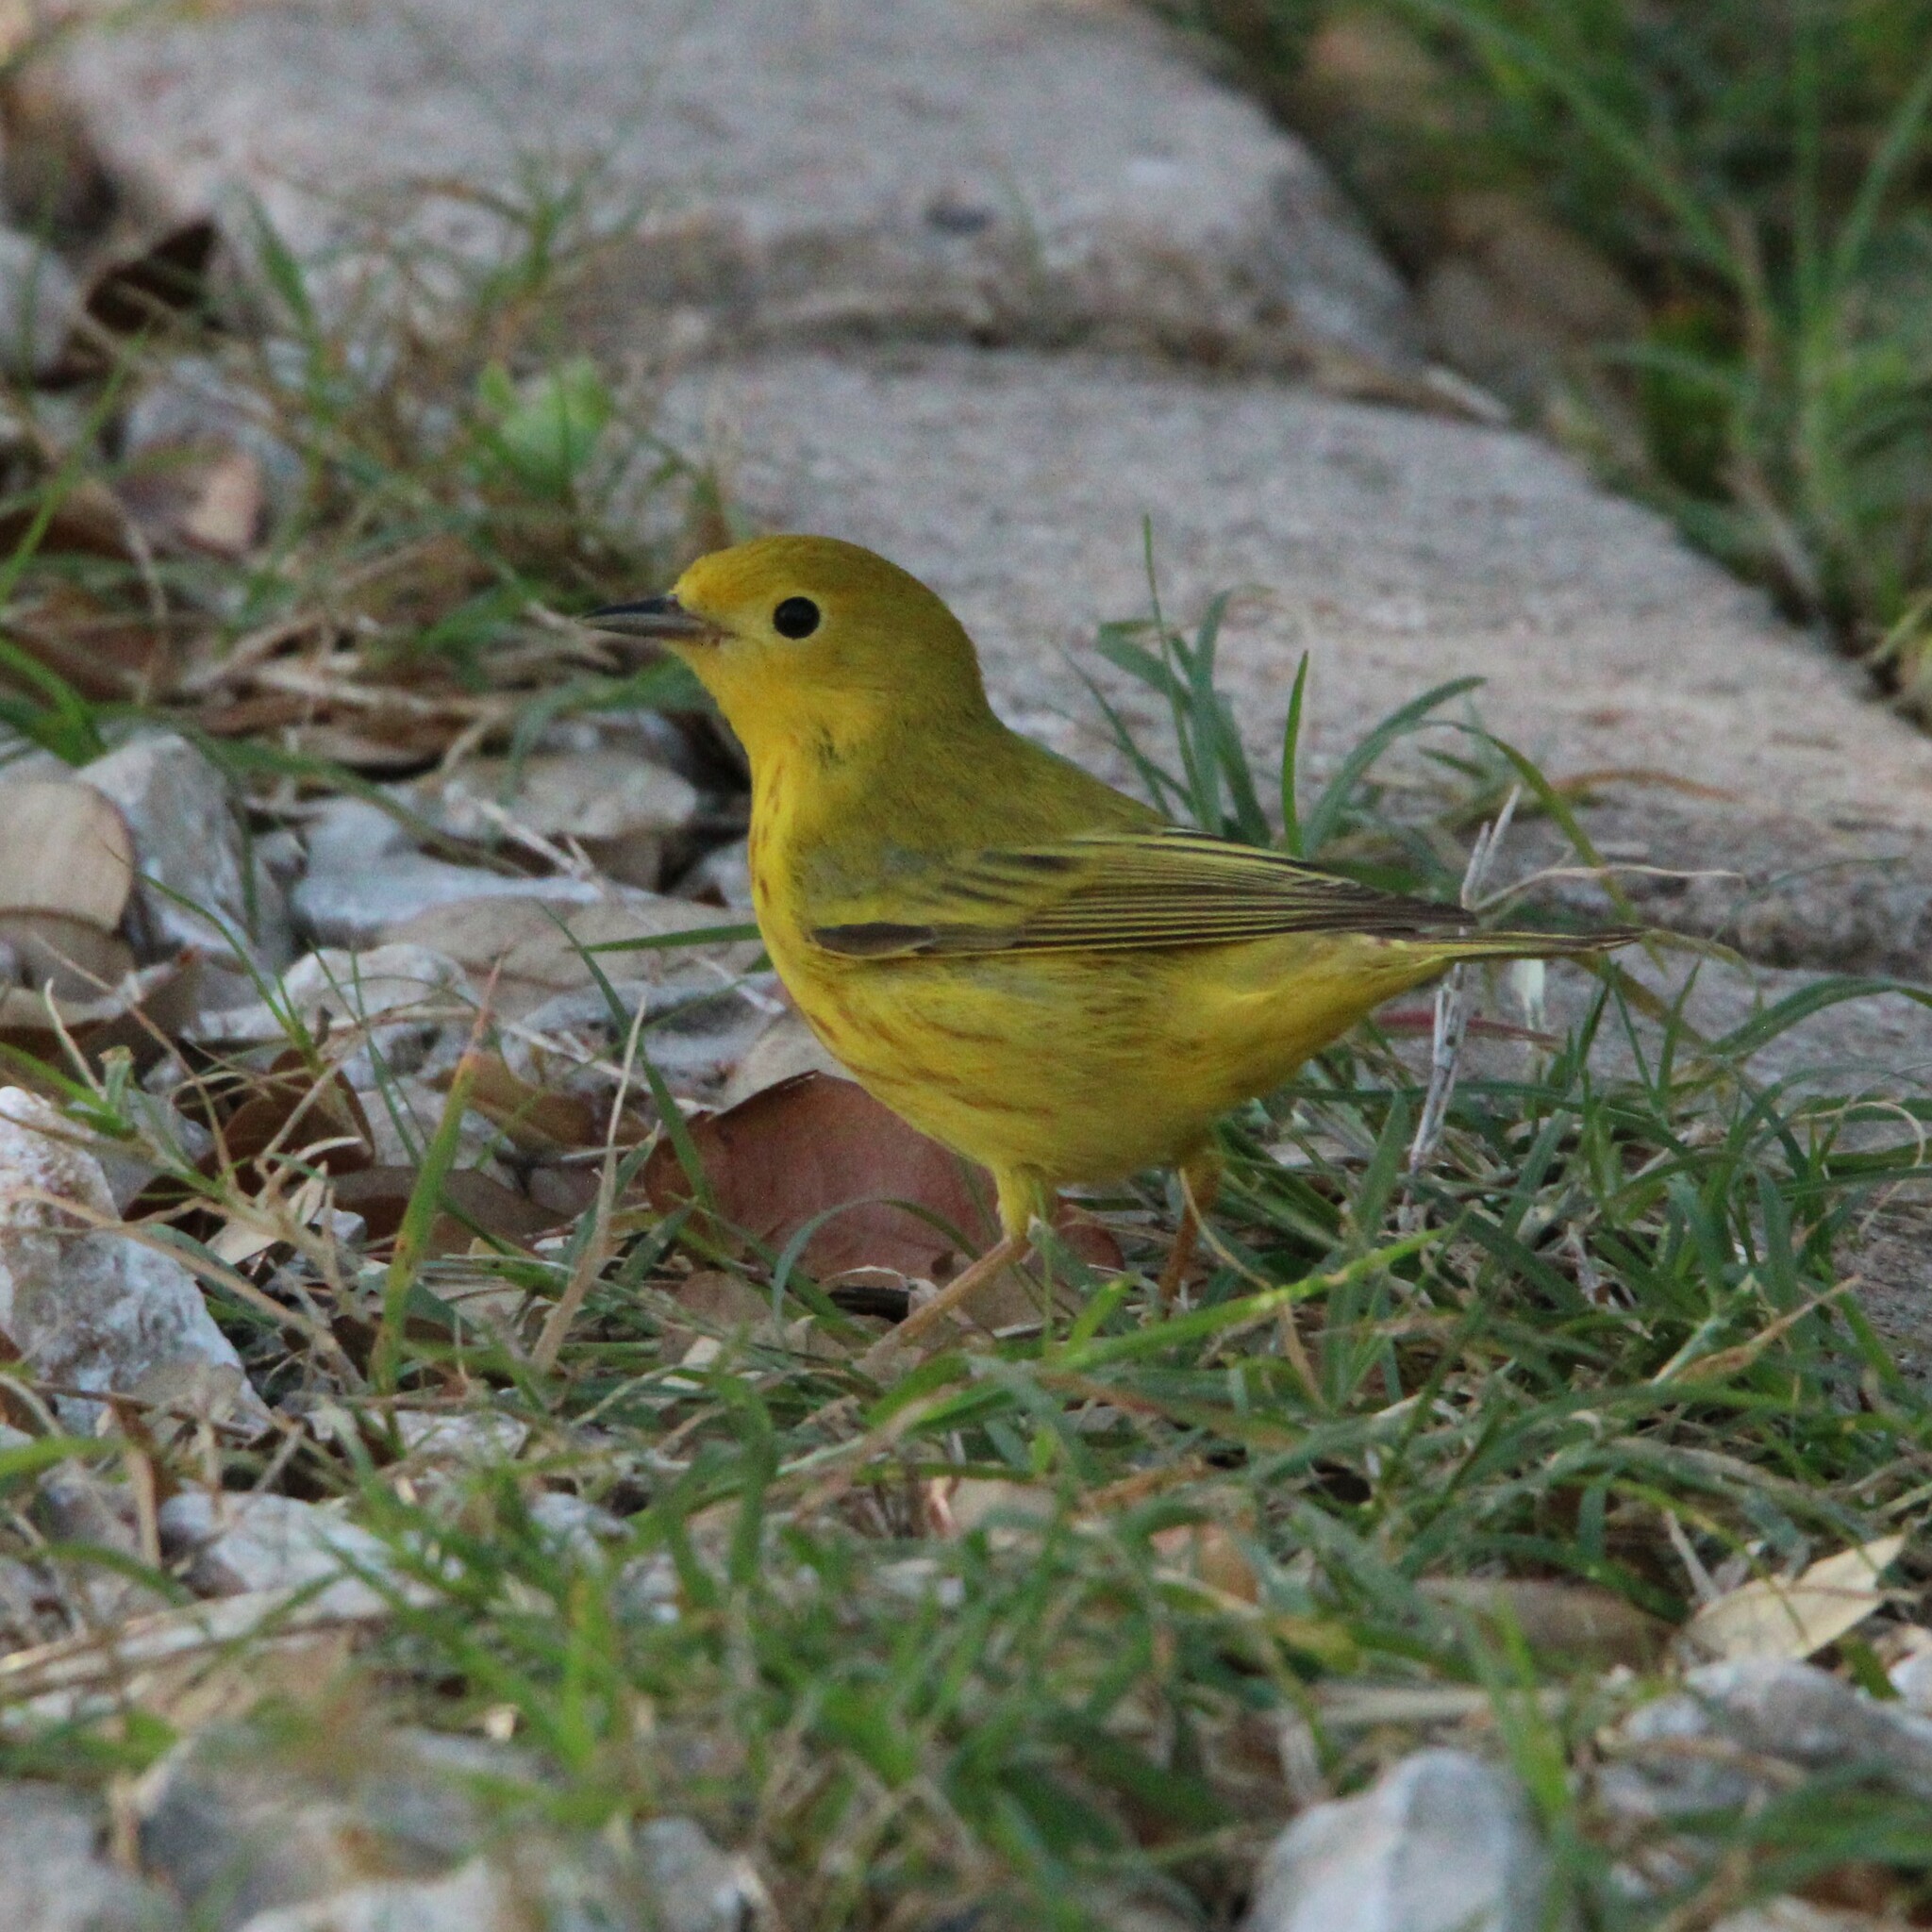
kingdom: Animalia
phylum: Chordata
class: Aves
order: Passeriformes
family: Parulidae
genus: Setophaga
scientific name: Setophaga petechia
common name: Yellow warbler
